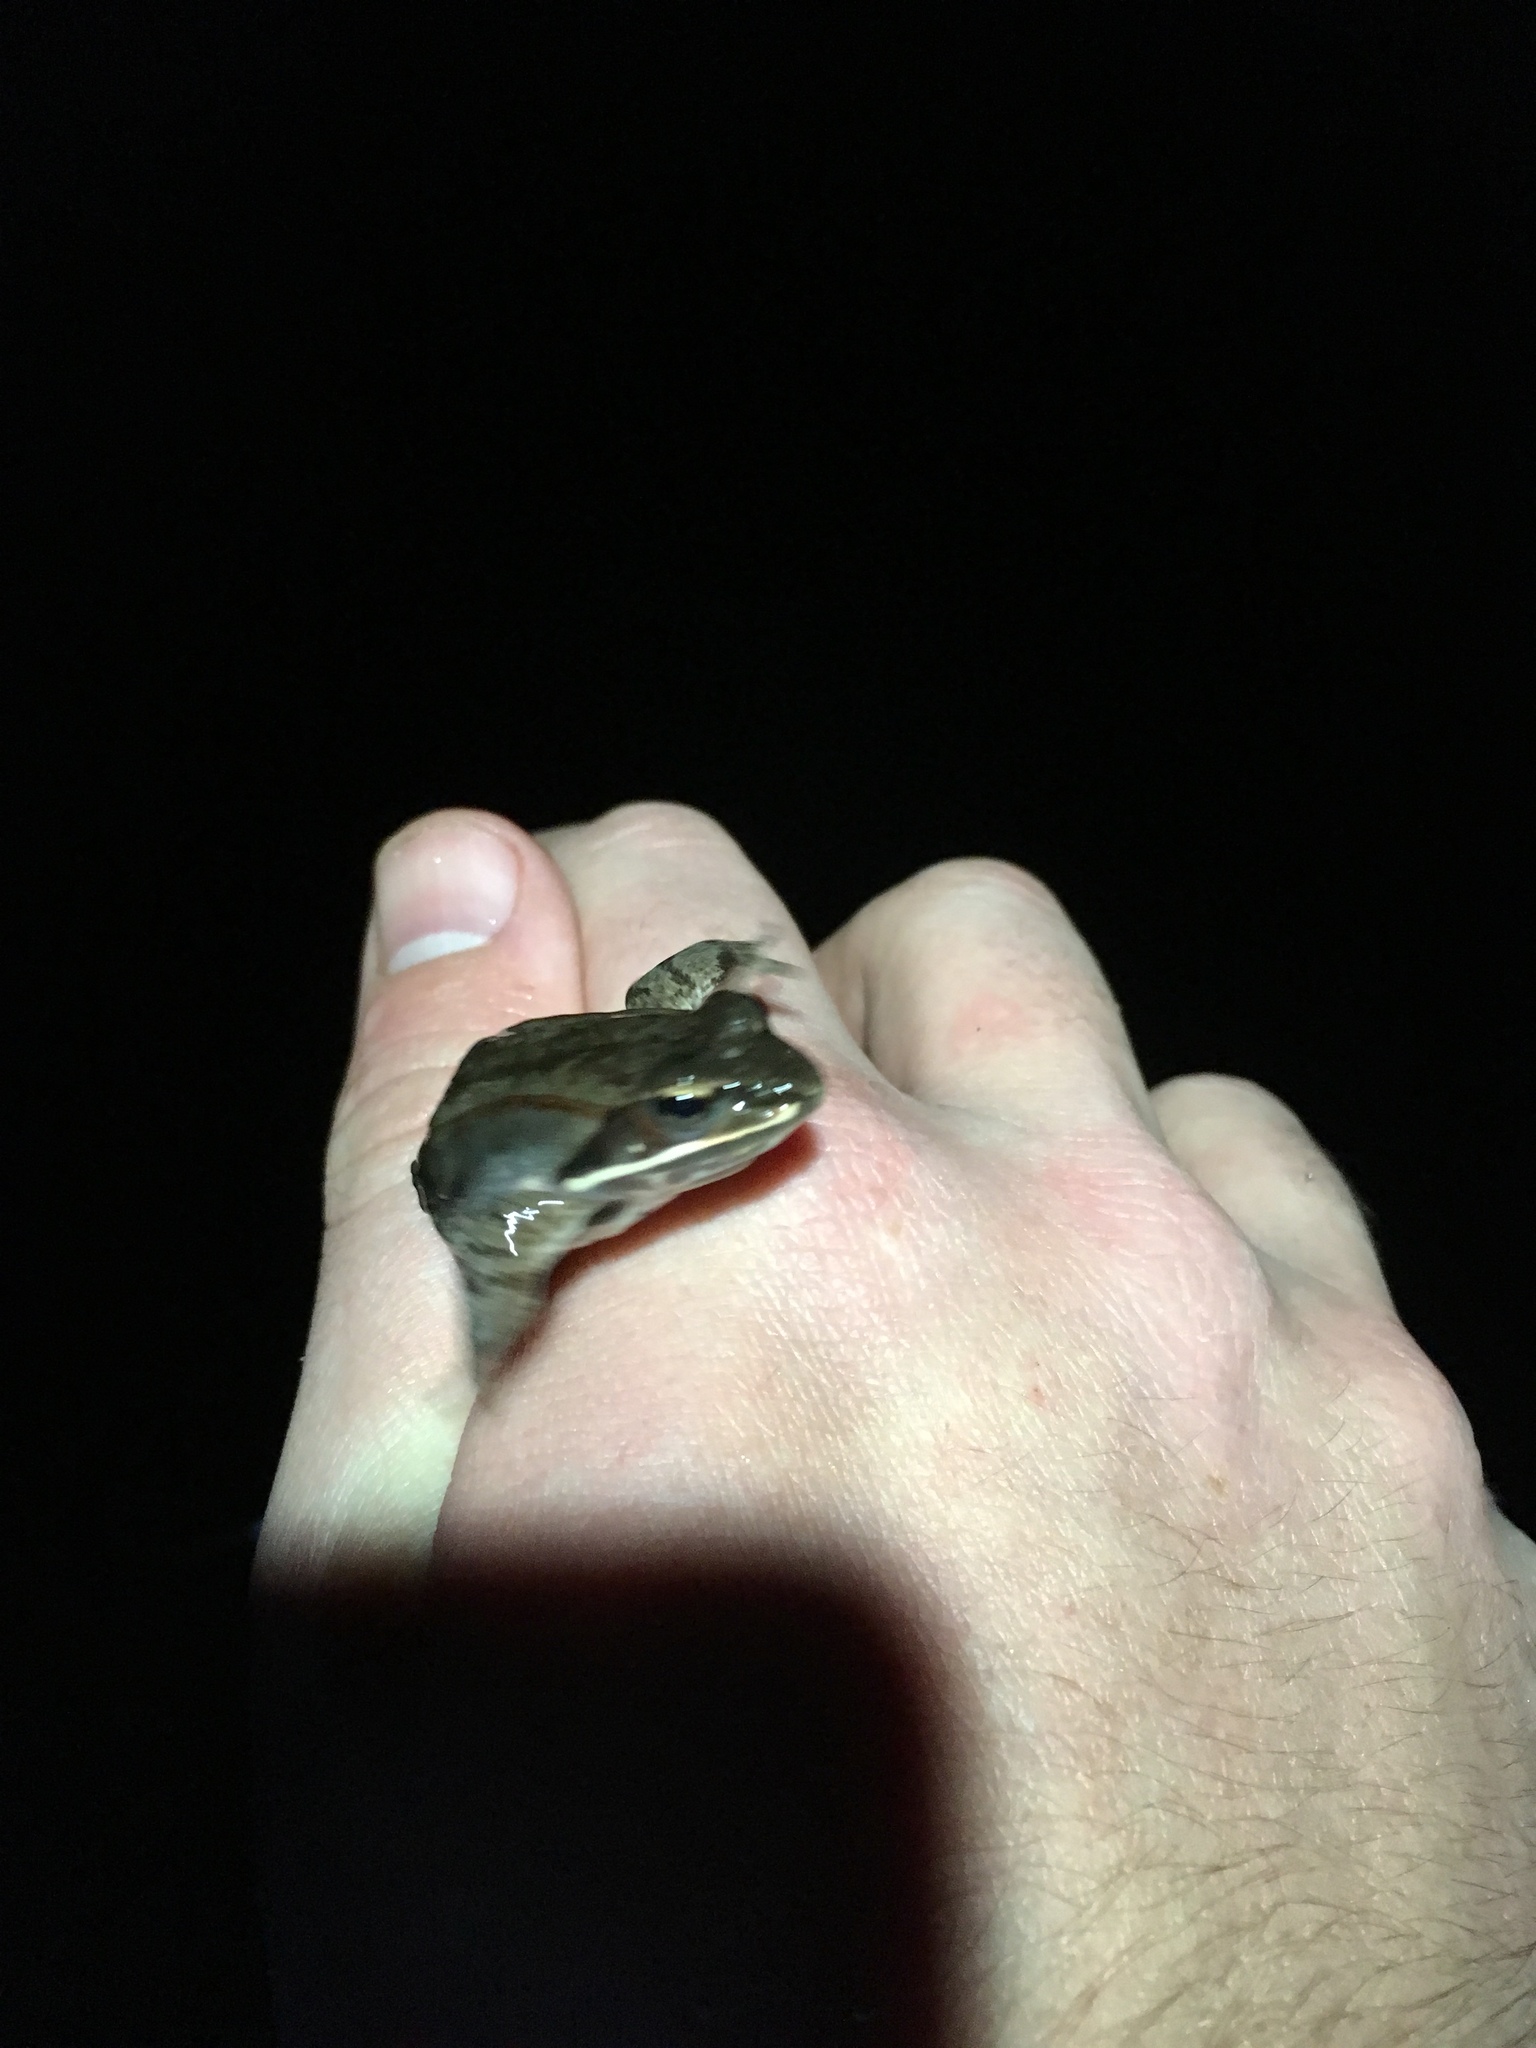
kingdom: Animalia
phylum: Chordata
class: Amphibia
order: Anura
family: Ranidae
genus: Lithobates
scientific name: Lithobates sylvaticus
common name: Wood frog
